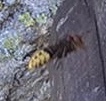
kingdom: Animalia
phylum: Arthropoda
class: Insecta
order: Hymenoptera
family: Vespidae
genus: Vespa
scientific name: Vespa crabro
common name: Hornet
